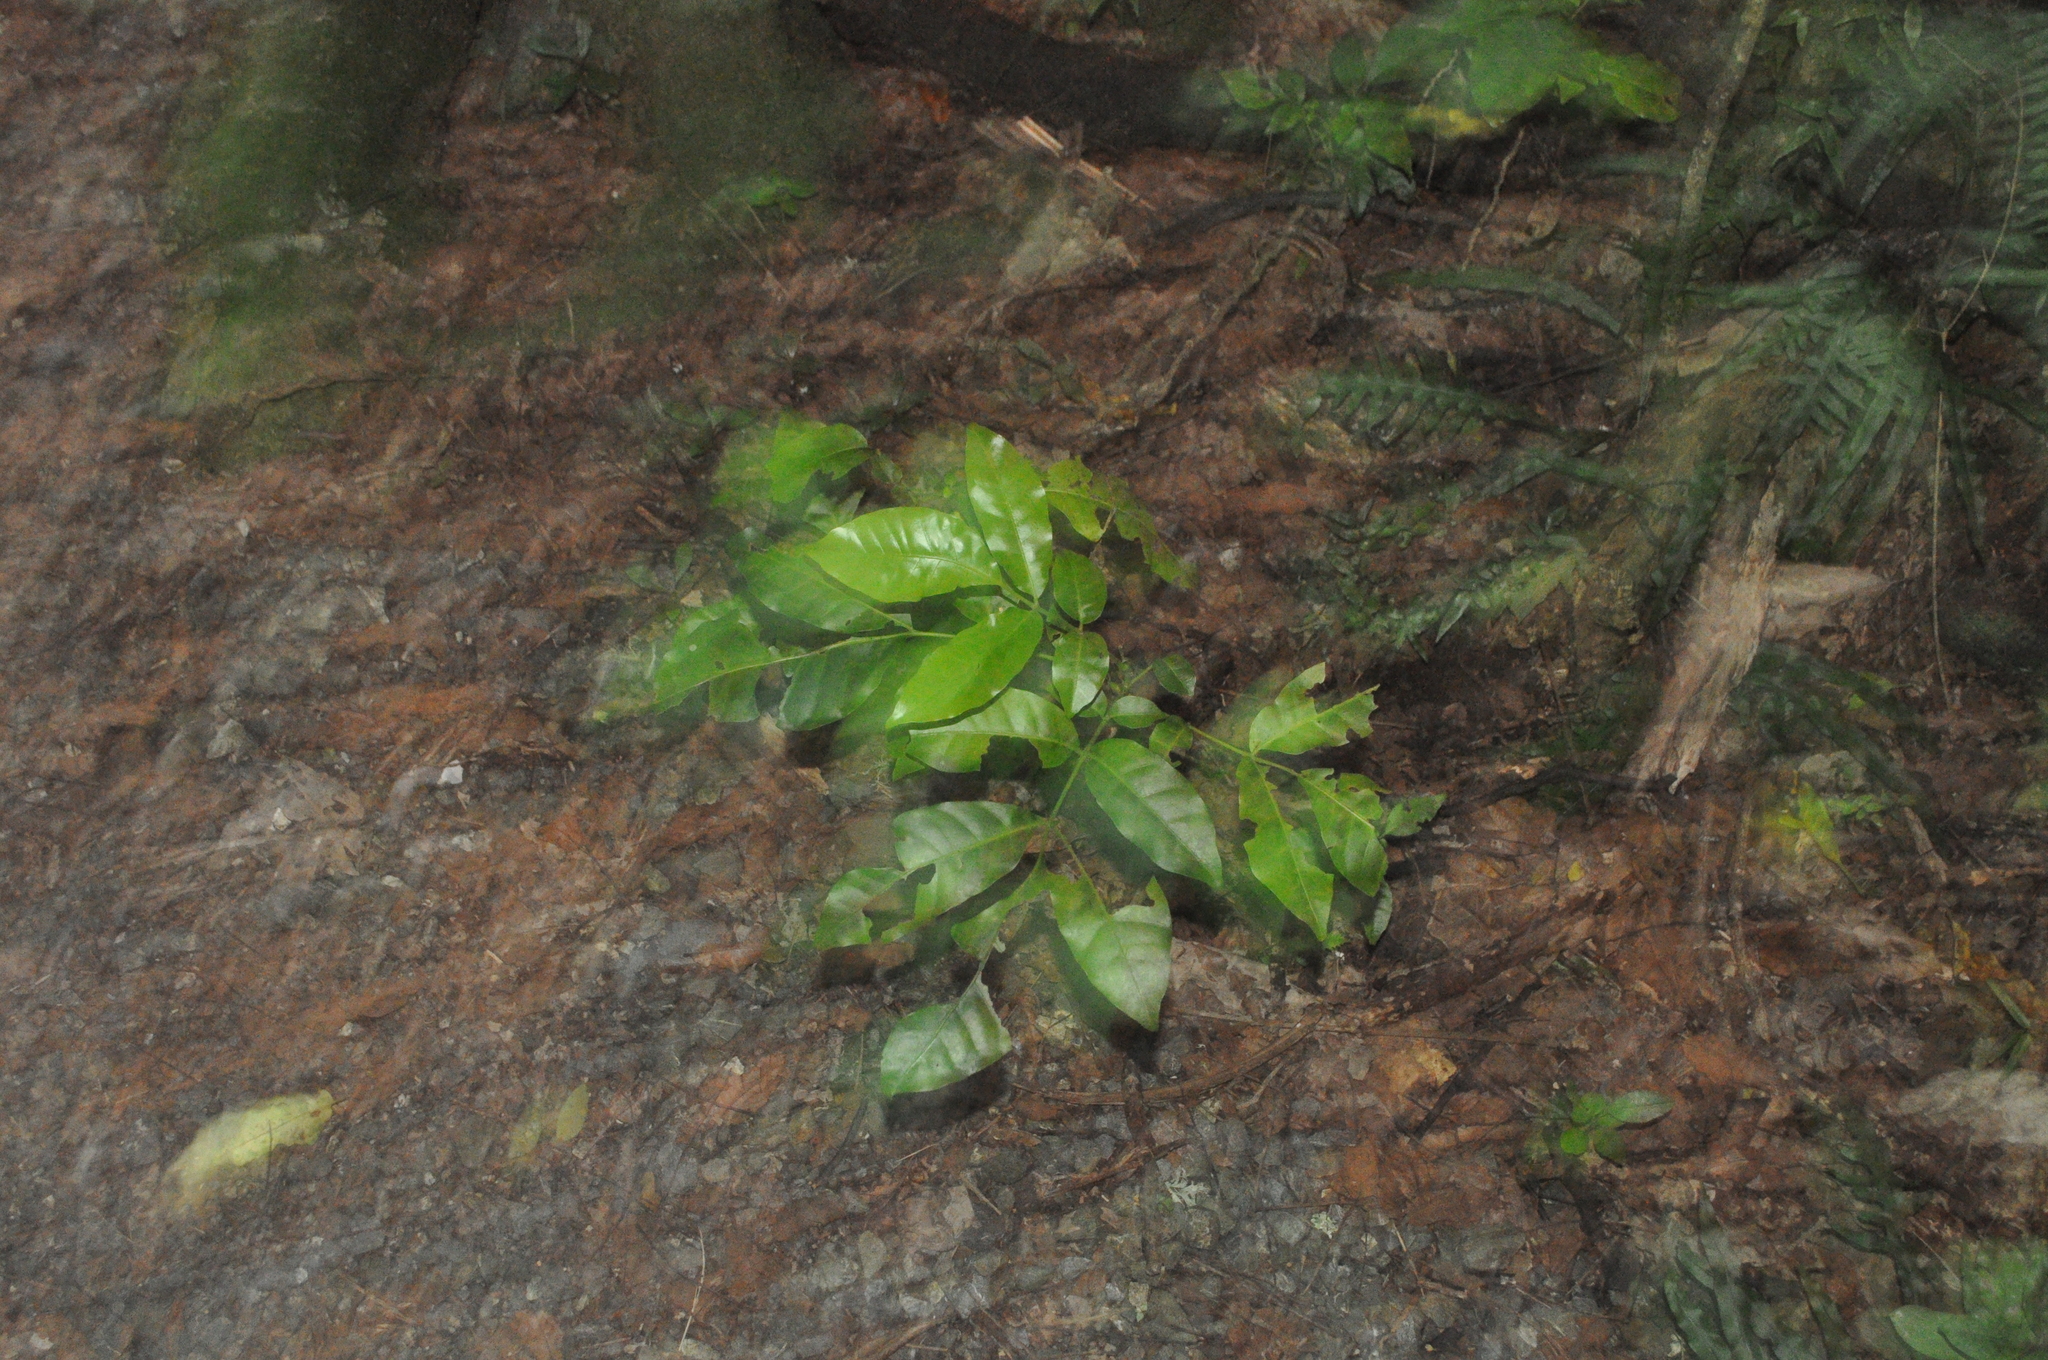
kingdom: Plantae
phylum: Tracheophyta
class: Magnoliopsida
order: Sapindales
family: Meliaceae
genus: Didymocheton
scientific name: Didymocheton spectabilis
